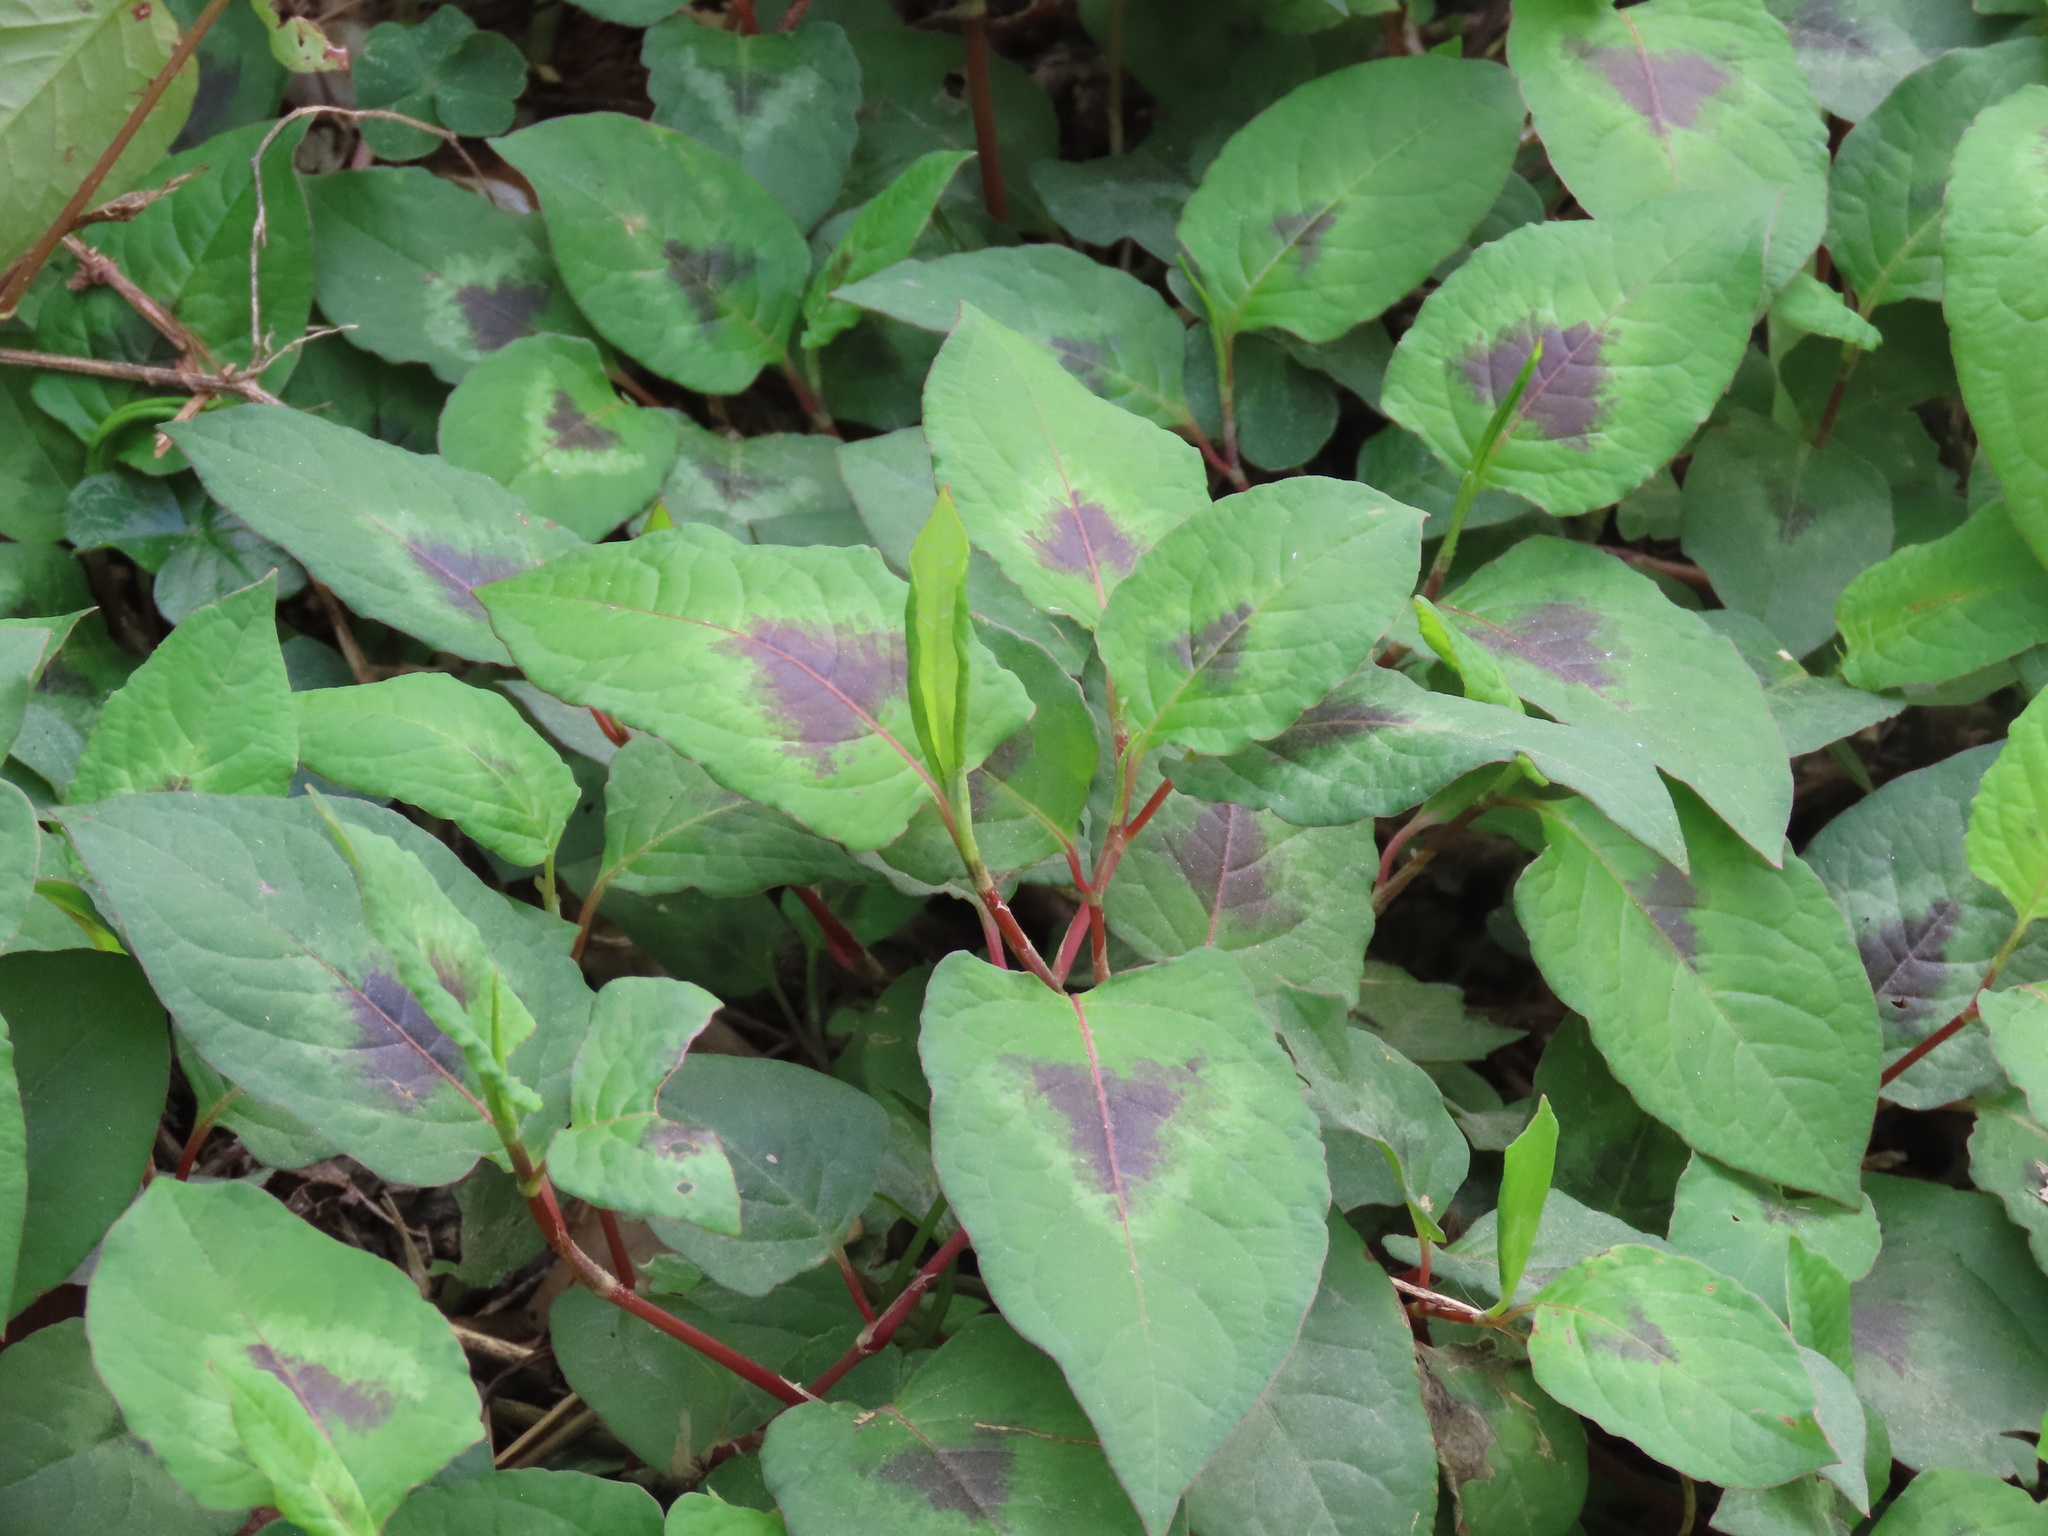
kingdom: Plantae
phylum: Tracheophyta
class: Magnoliopsida
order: Caryophyllales
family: Polygonaceae
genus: Persicaria
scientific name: Persicaria chinensis
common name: Chinese knotweed
